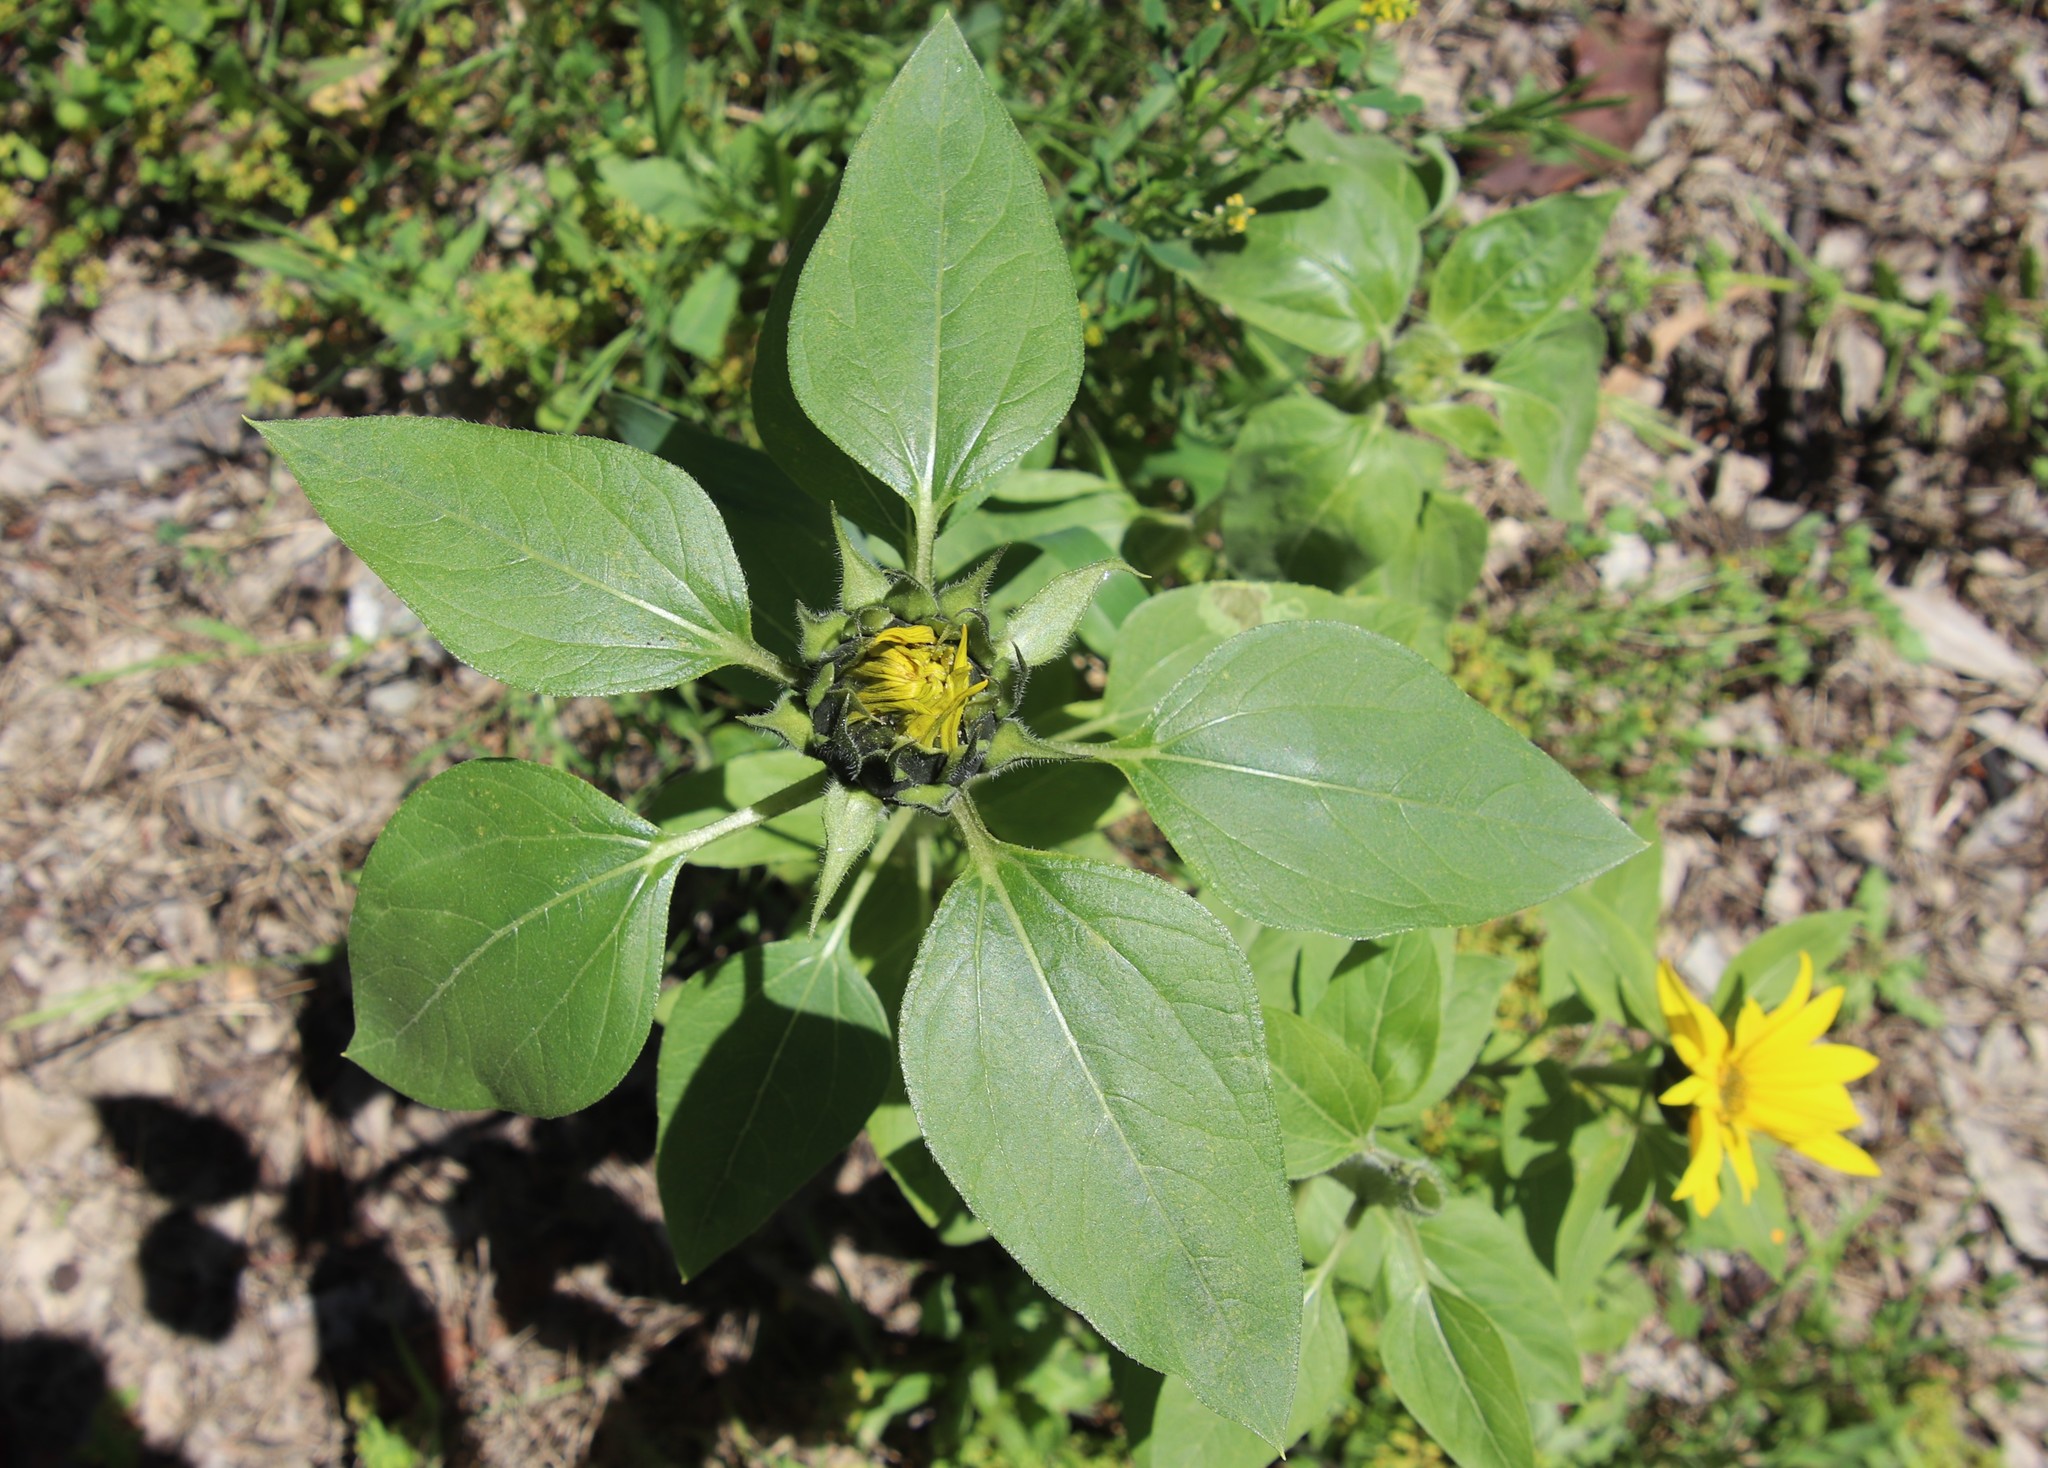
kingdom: Plantae
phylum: Tracheophyta
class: Magnoliopsida
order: Asterales
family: Asteraceae
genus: Helianthus
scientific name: Helianthus annuus
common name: Sunflower
